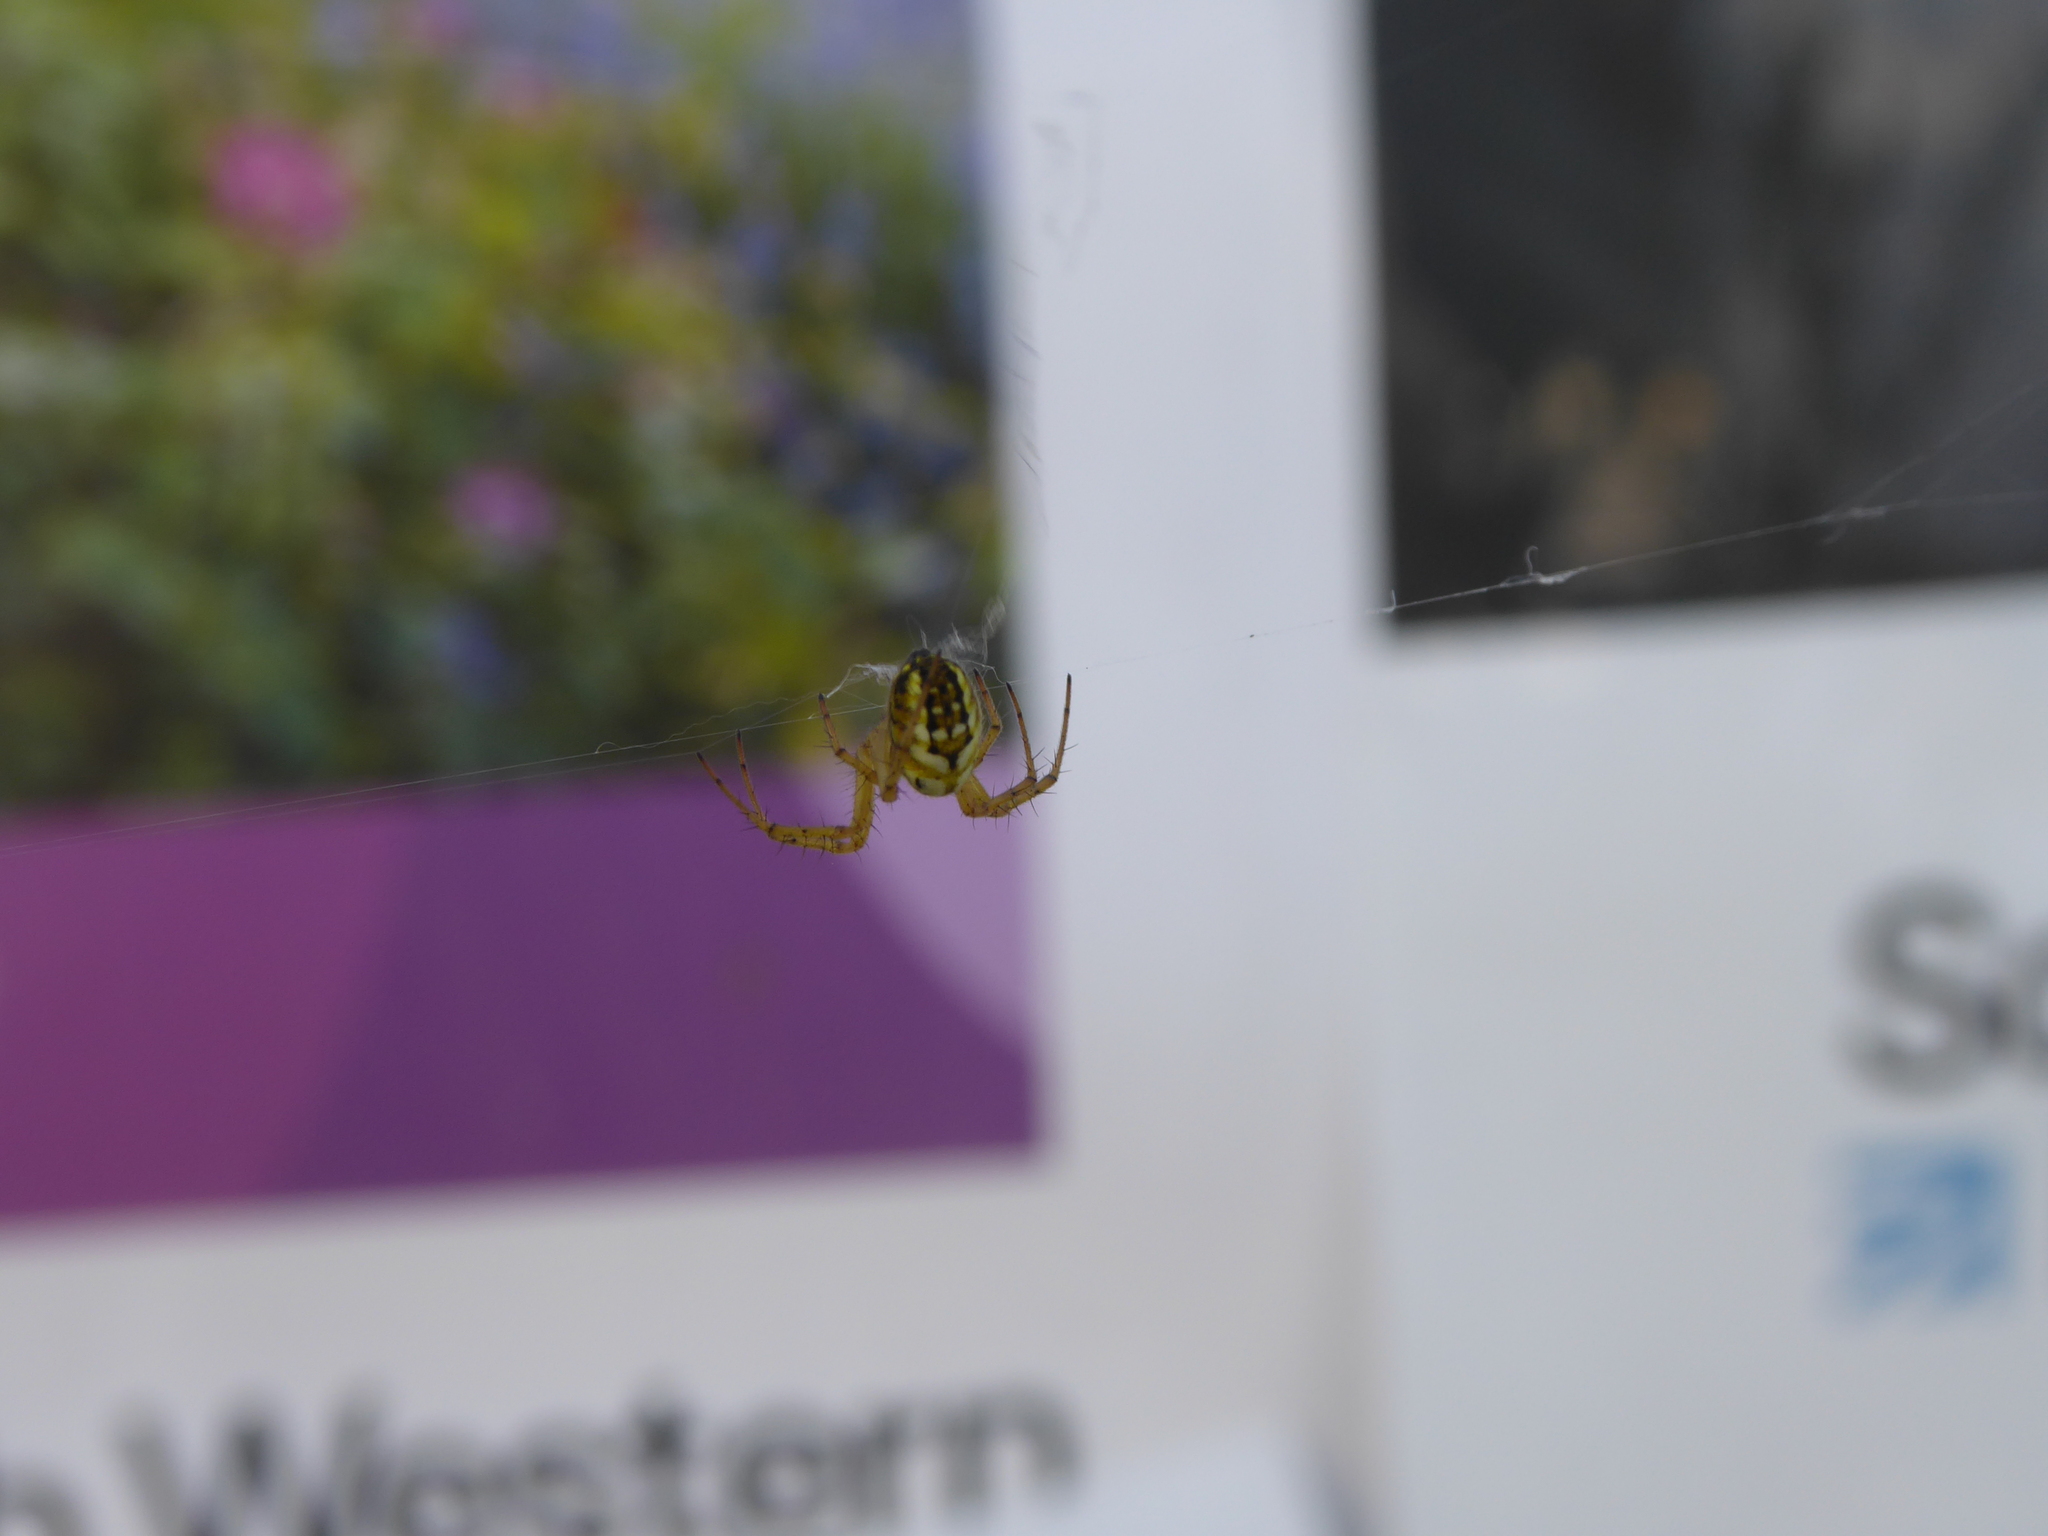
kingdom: Animalia
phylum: Arthropoda
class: Arachnida
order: Araneae
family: Araneidae
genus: Mangora
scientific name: Mangora acalypha
